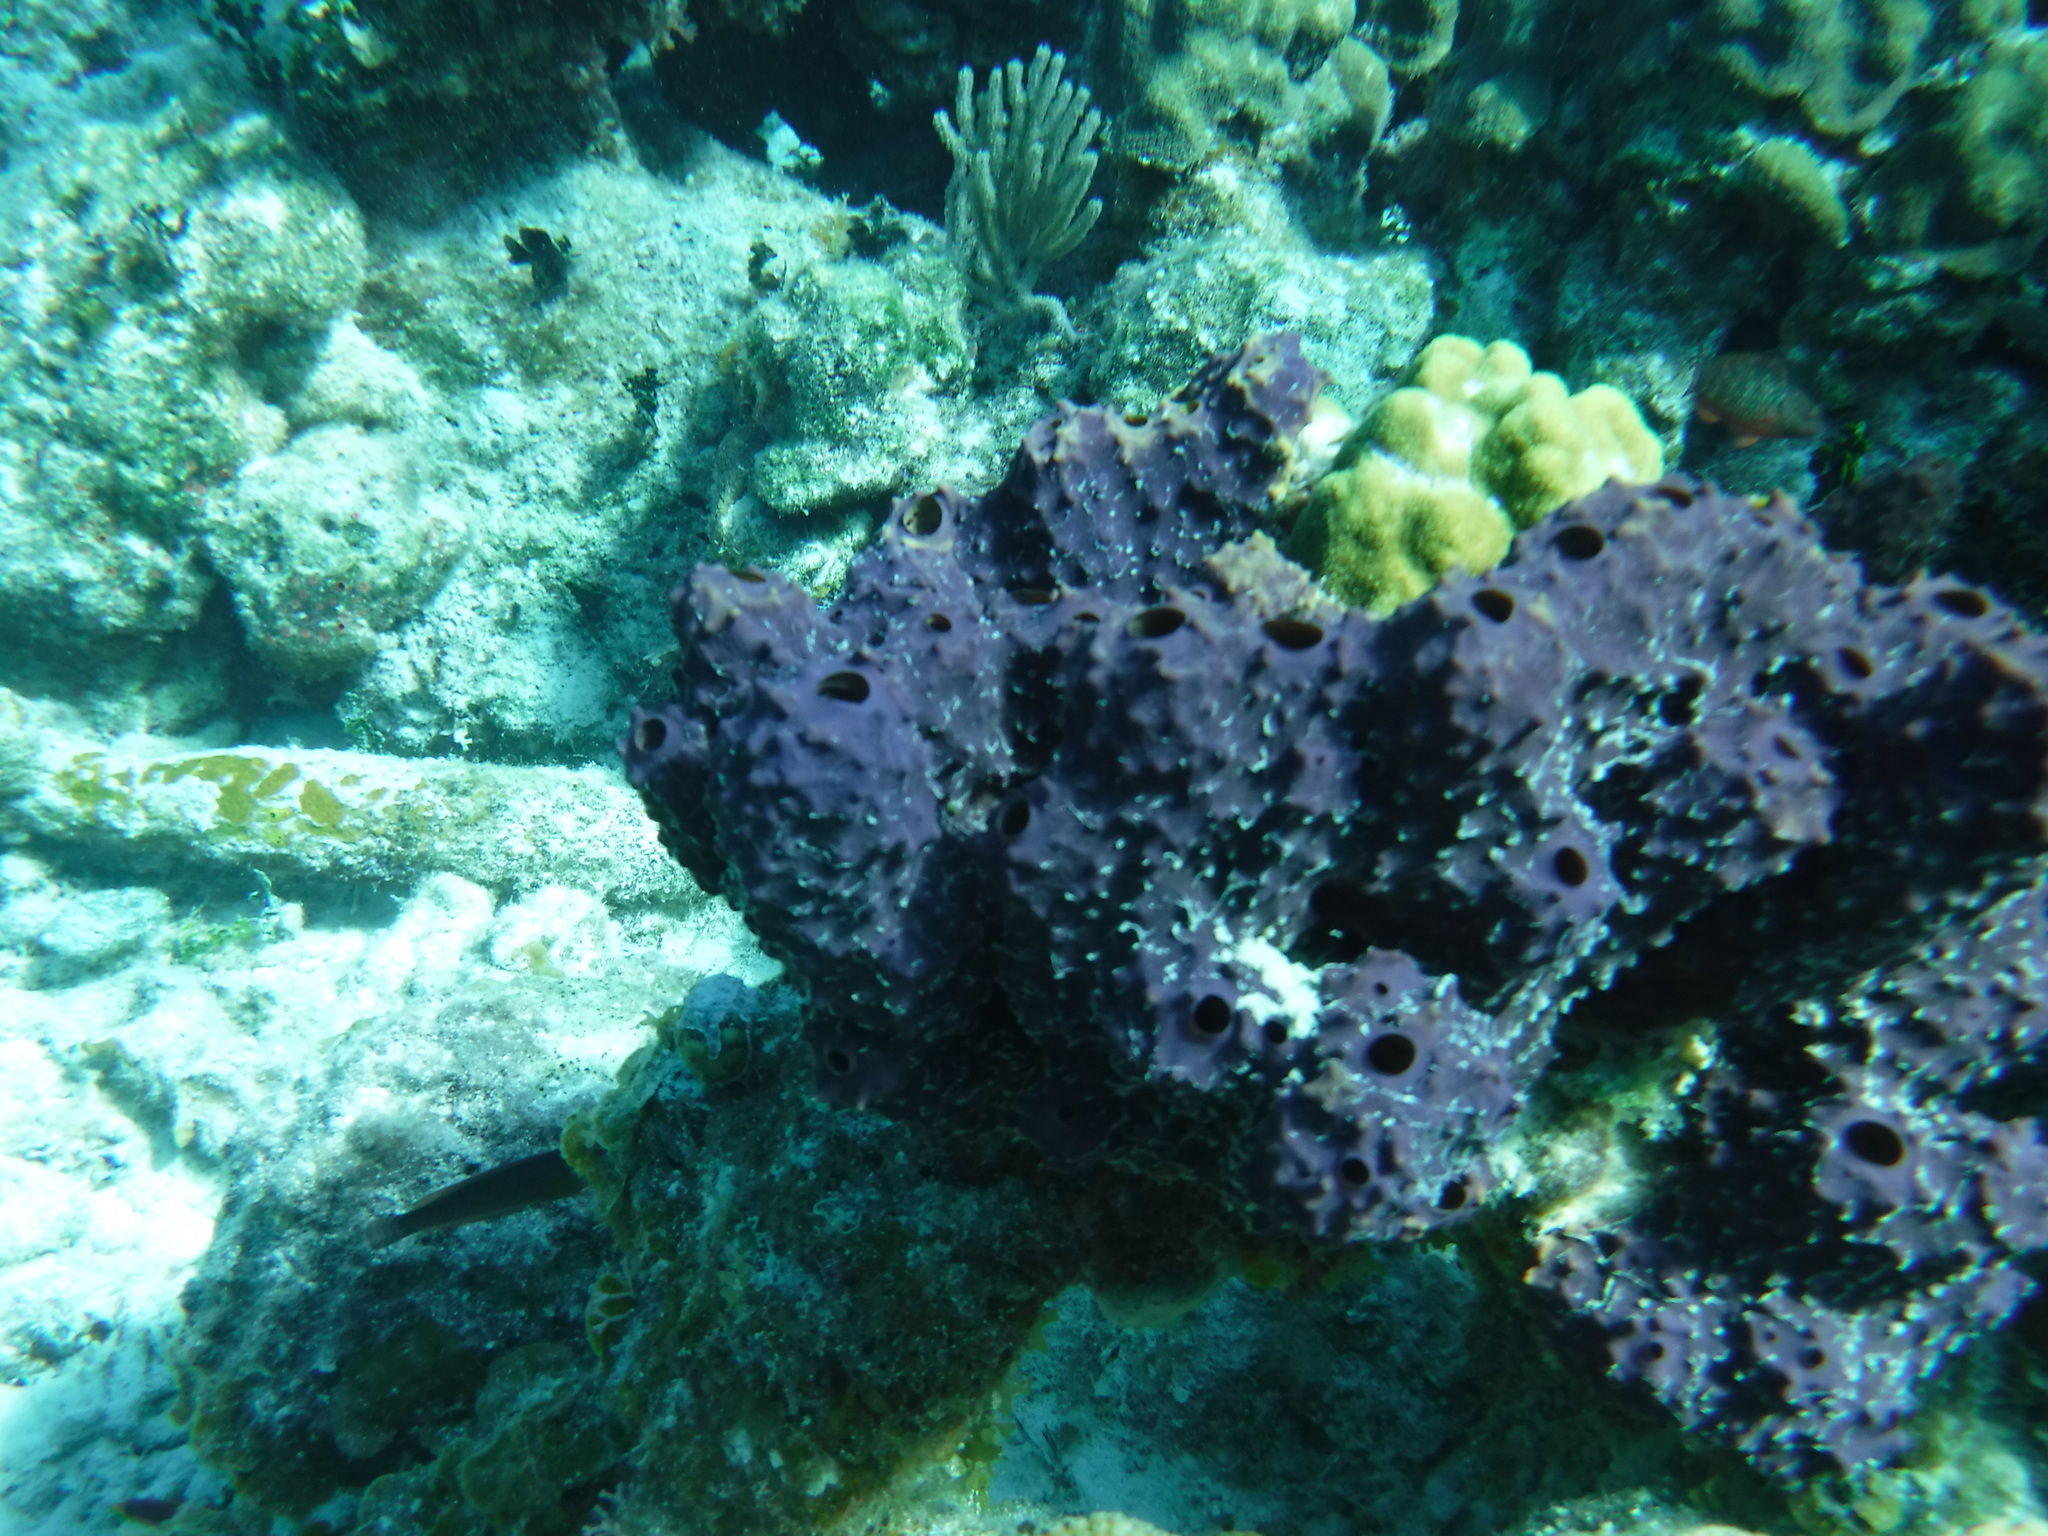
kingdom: Animalia
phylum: Porifera
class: Demospongiae
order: Verongiida
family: Aplysinidae
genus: Aiolochroia
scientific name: Aiolochroia crassa
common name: Branching tube sponge
